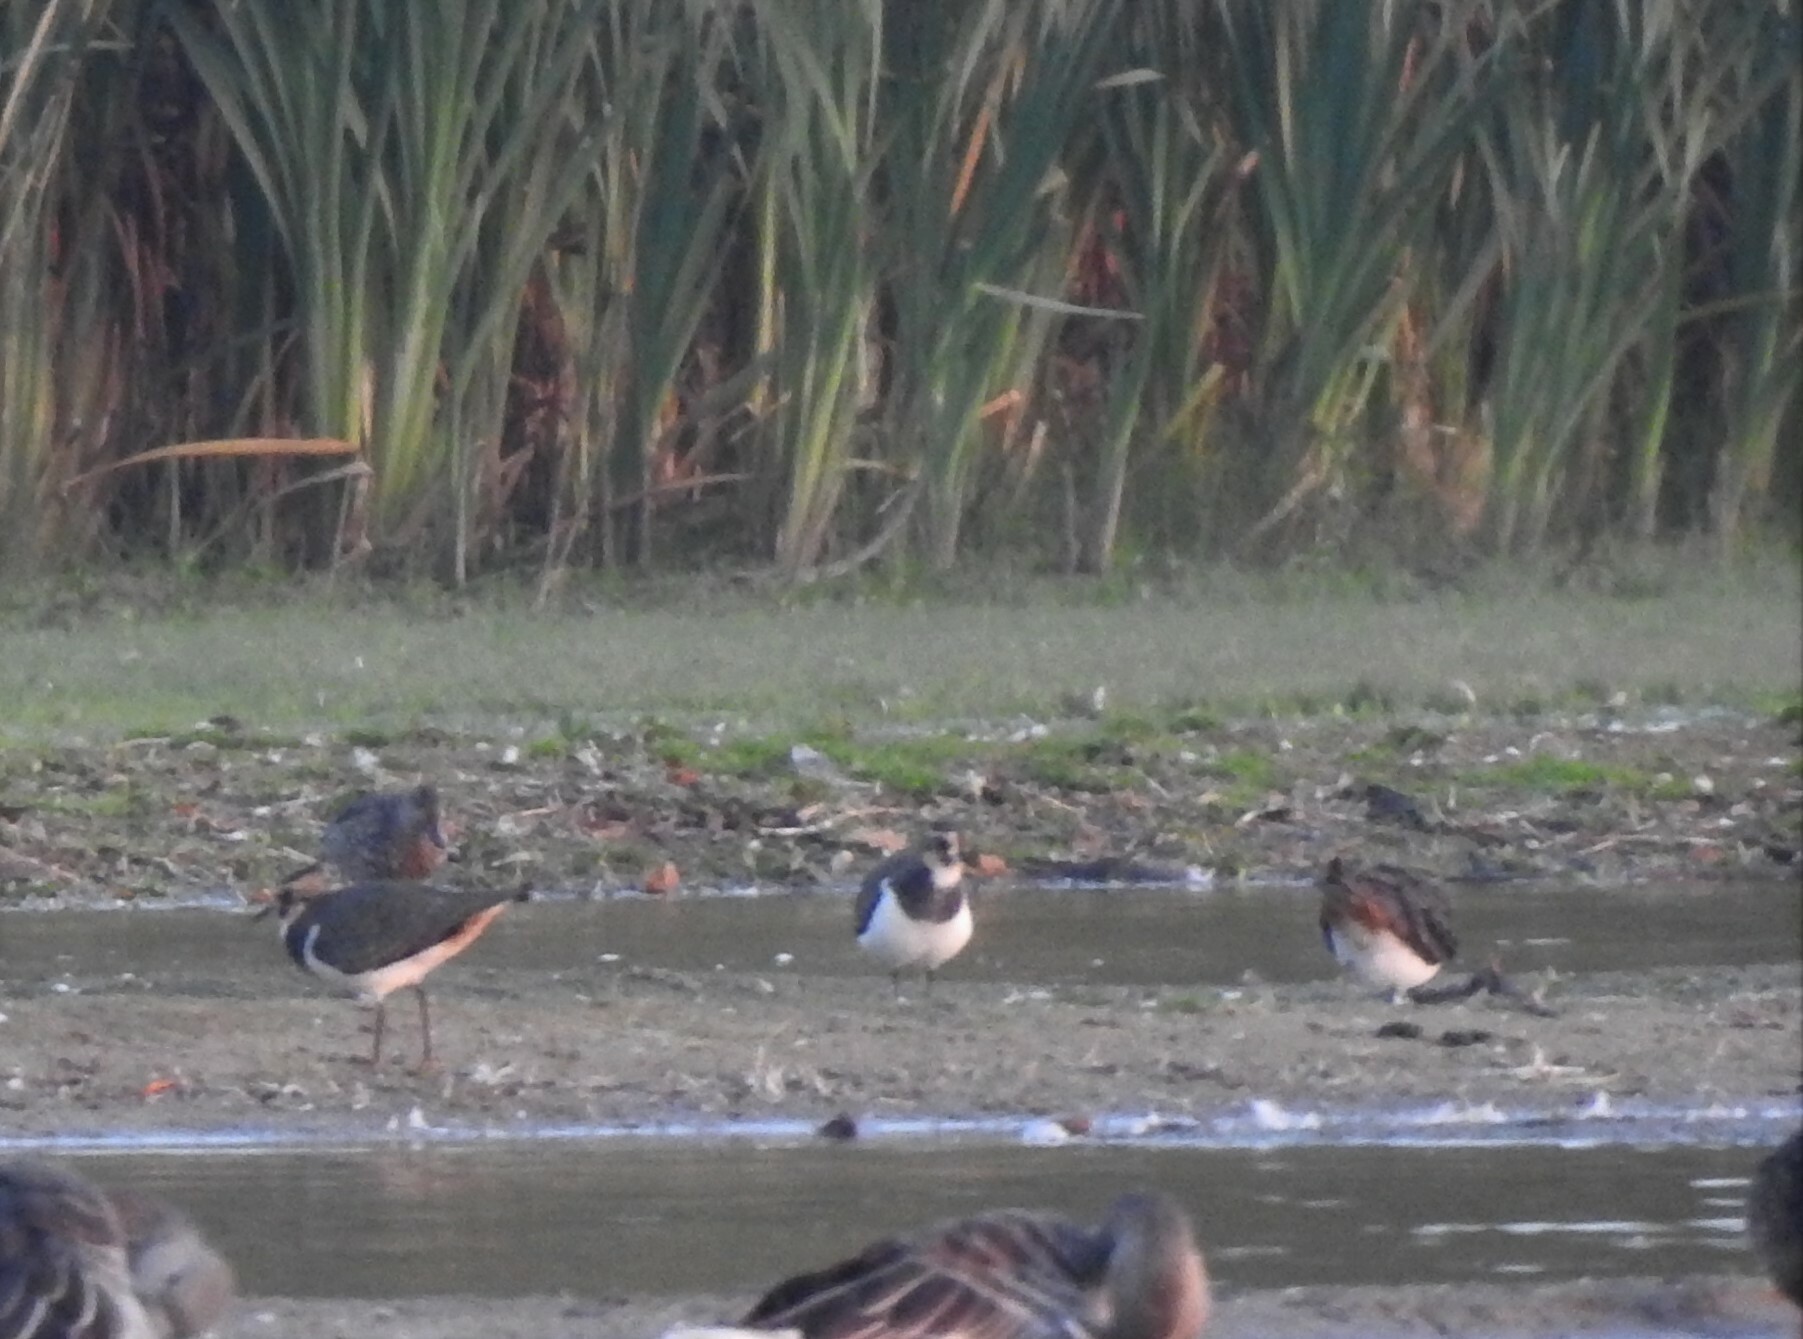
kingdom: Animalia
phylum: Chordata
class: Aves
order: Charadriiformes
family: Charadriidae
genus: Vanellus
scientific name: Vanellus vanellus
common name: Northern lapwing
